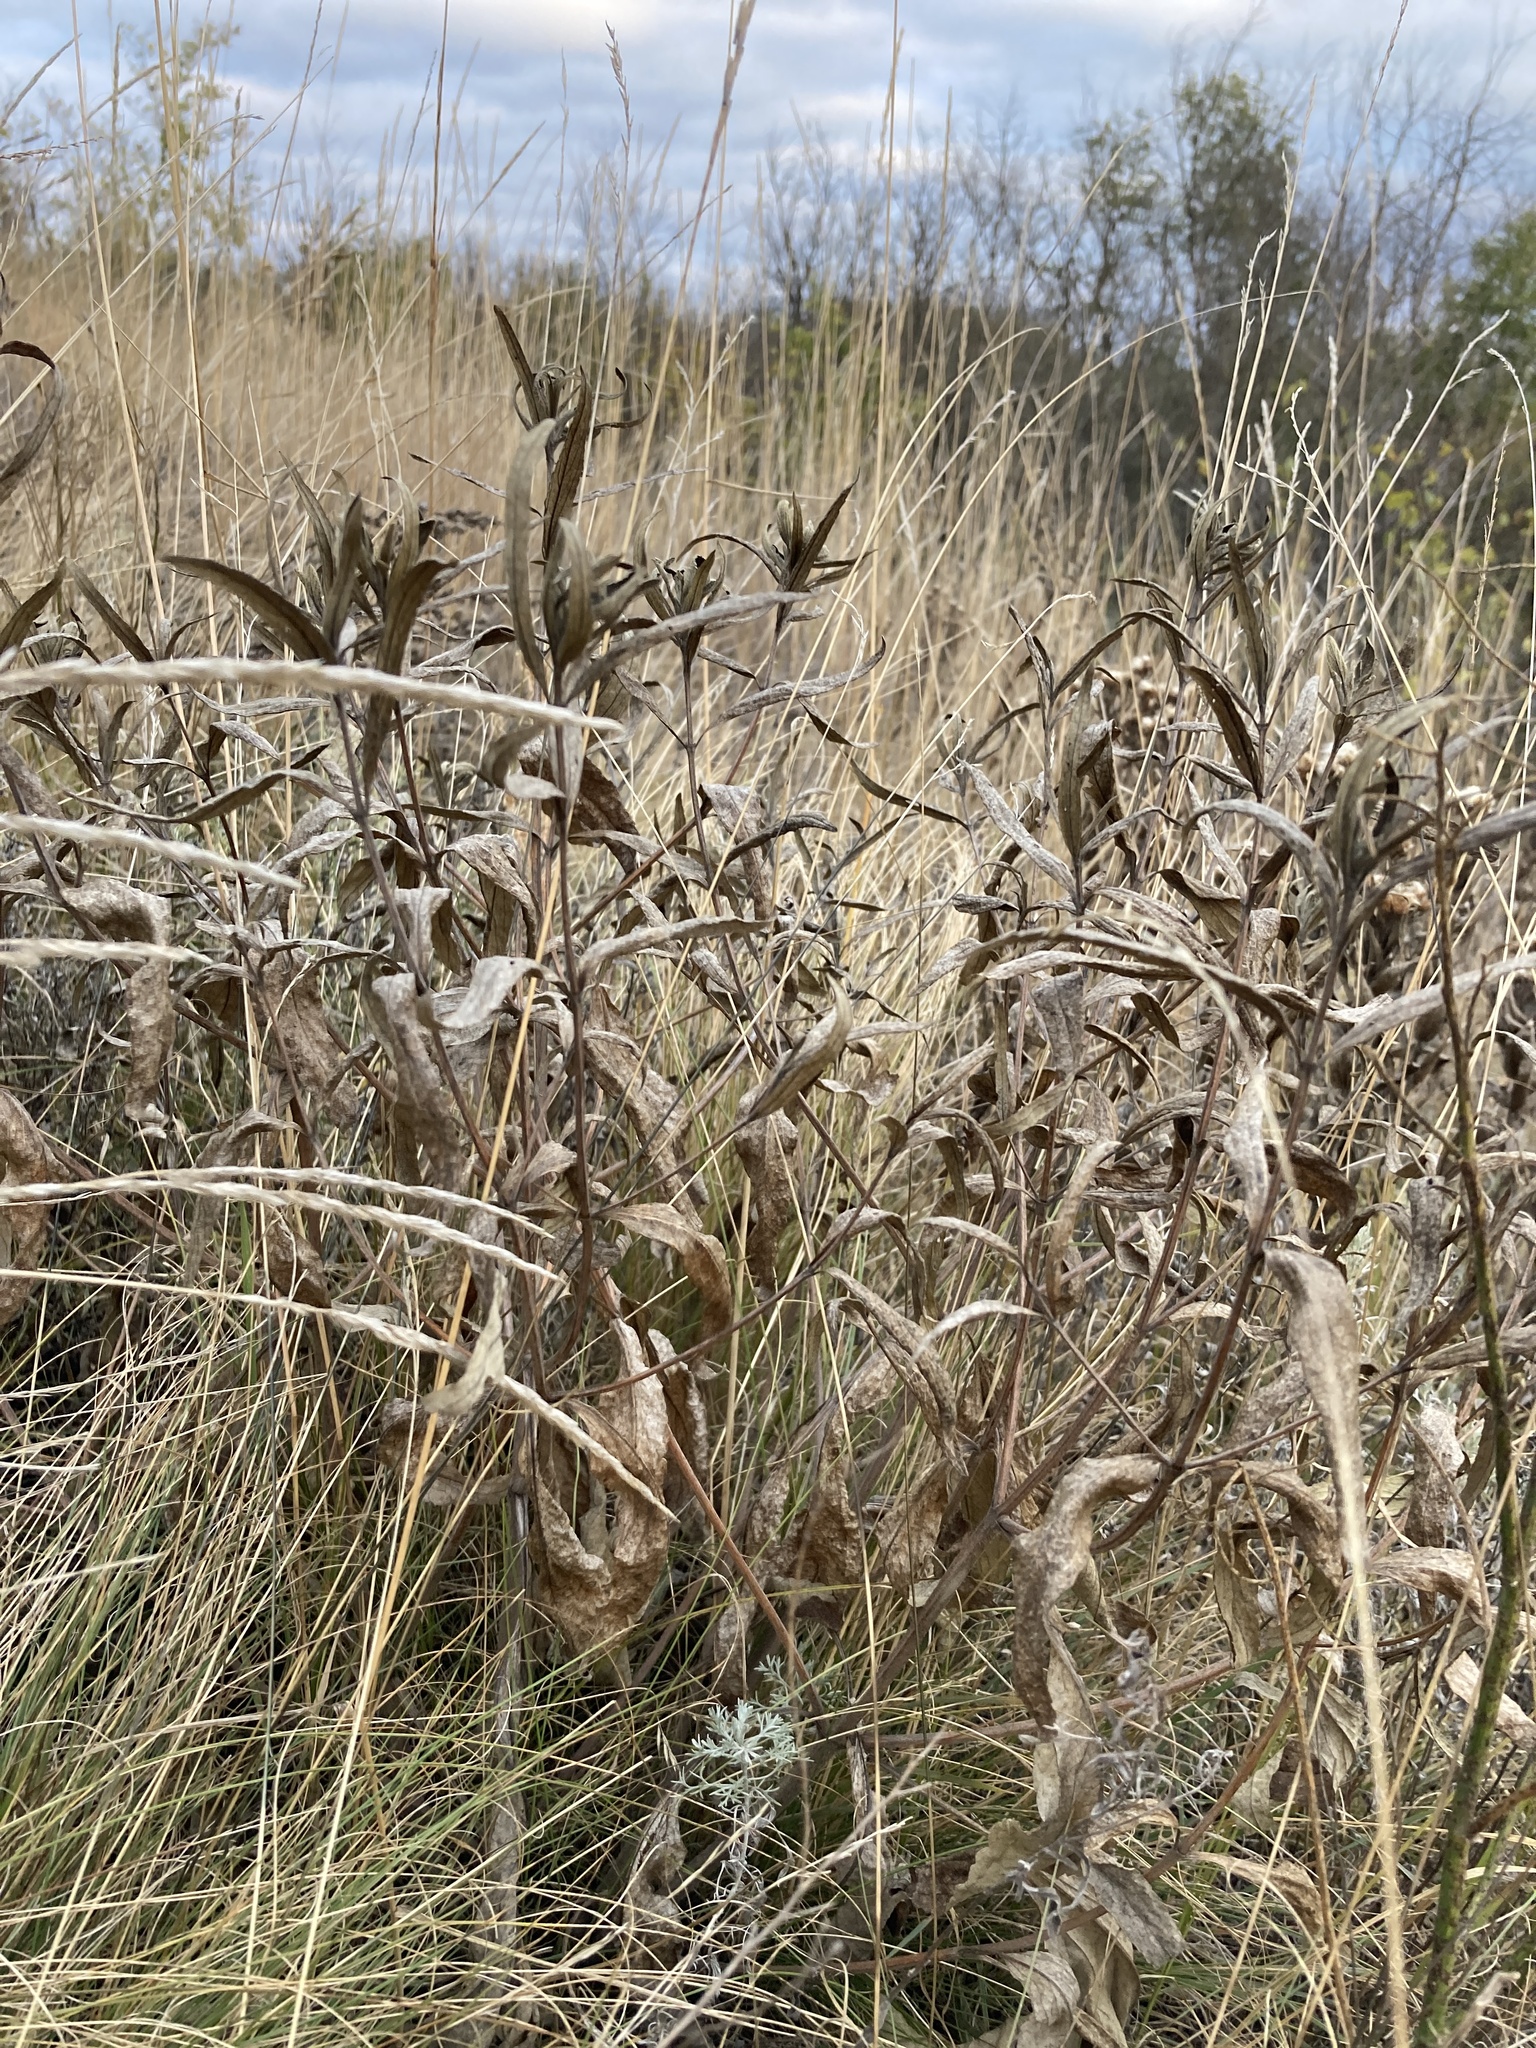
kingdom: Plantae
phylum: Tracheophyta
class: Magnoliopsida
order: Lamiales
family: Lamiaceae
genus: Phlomis
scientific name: Phlomis herba-venti
